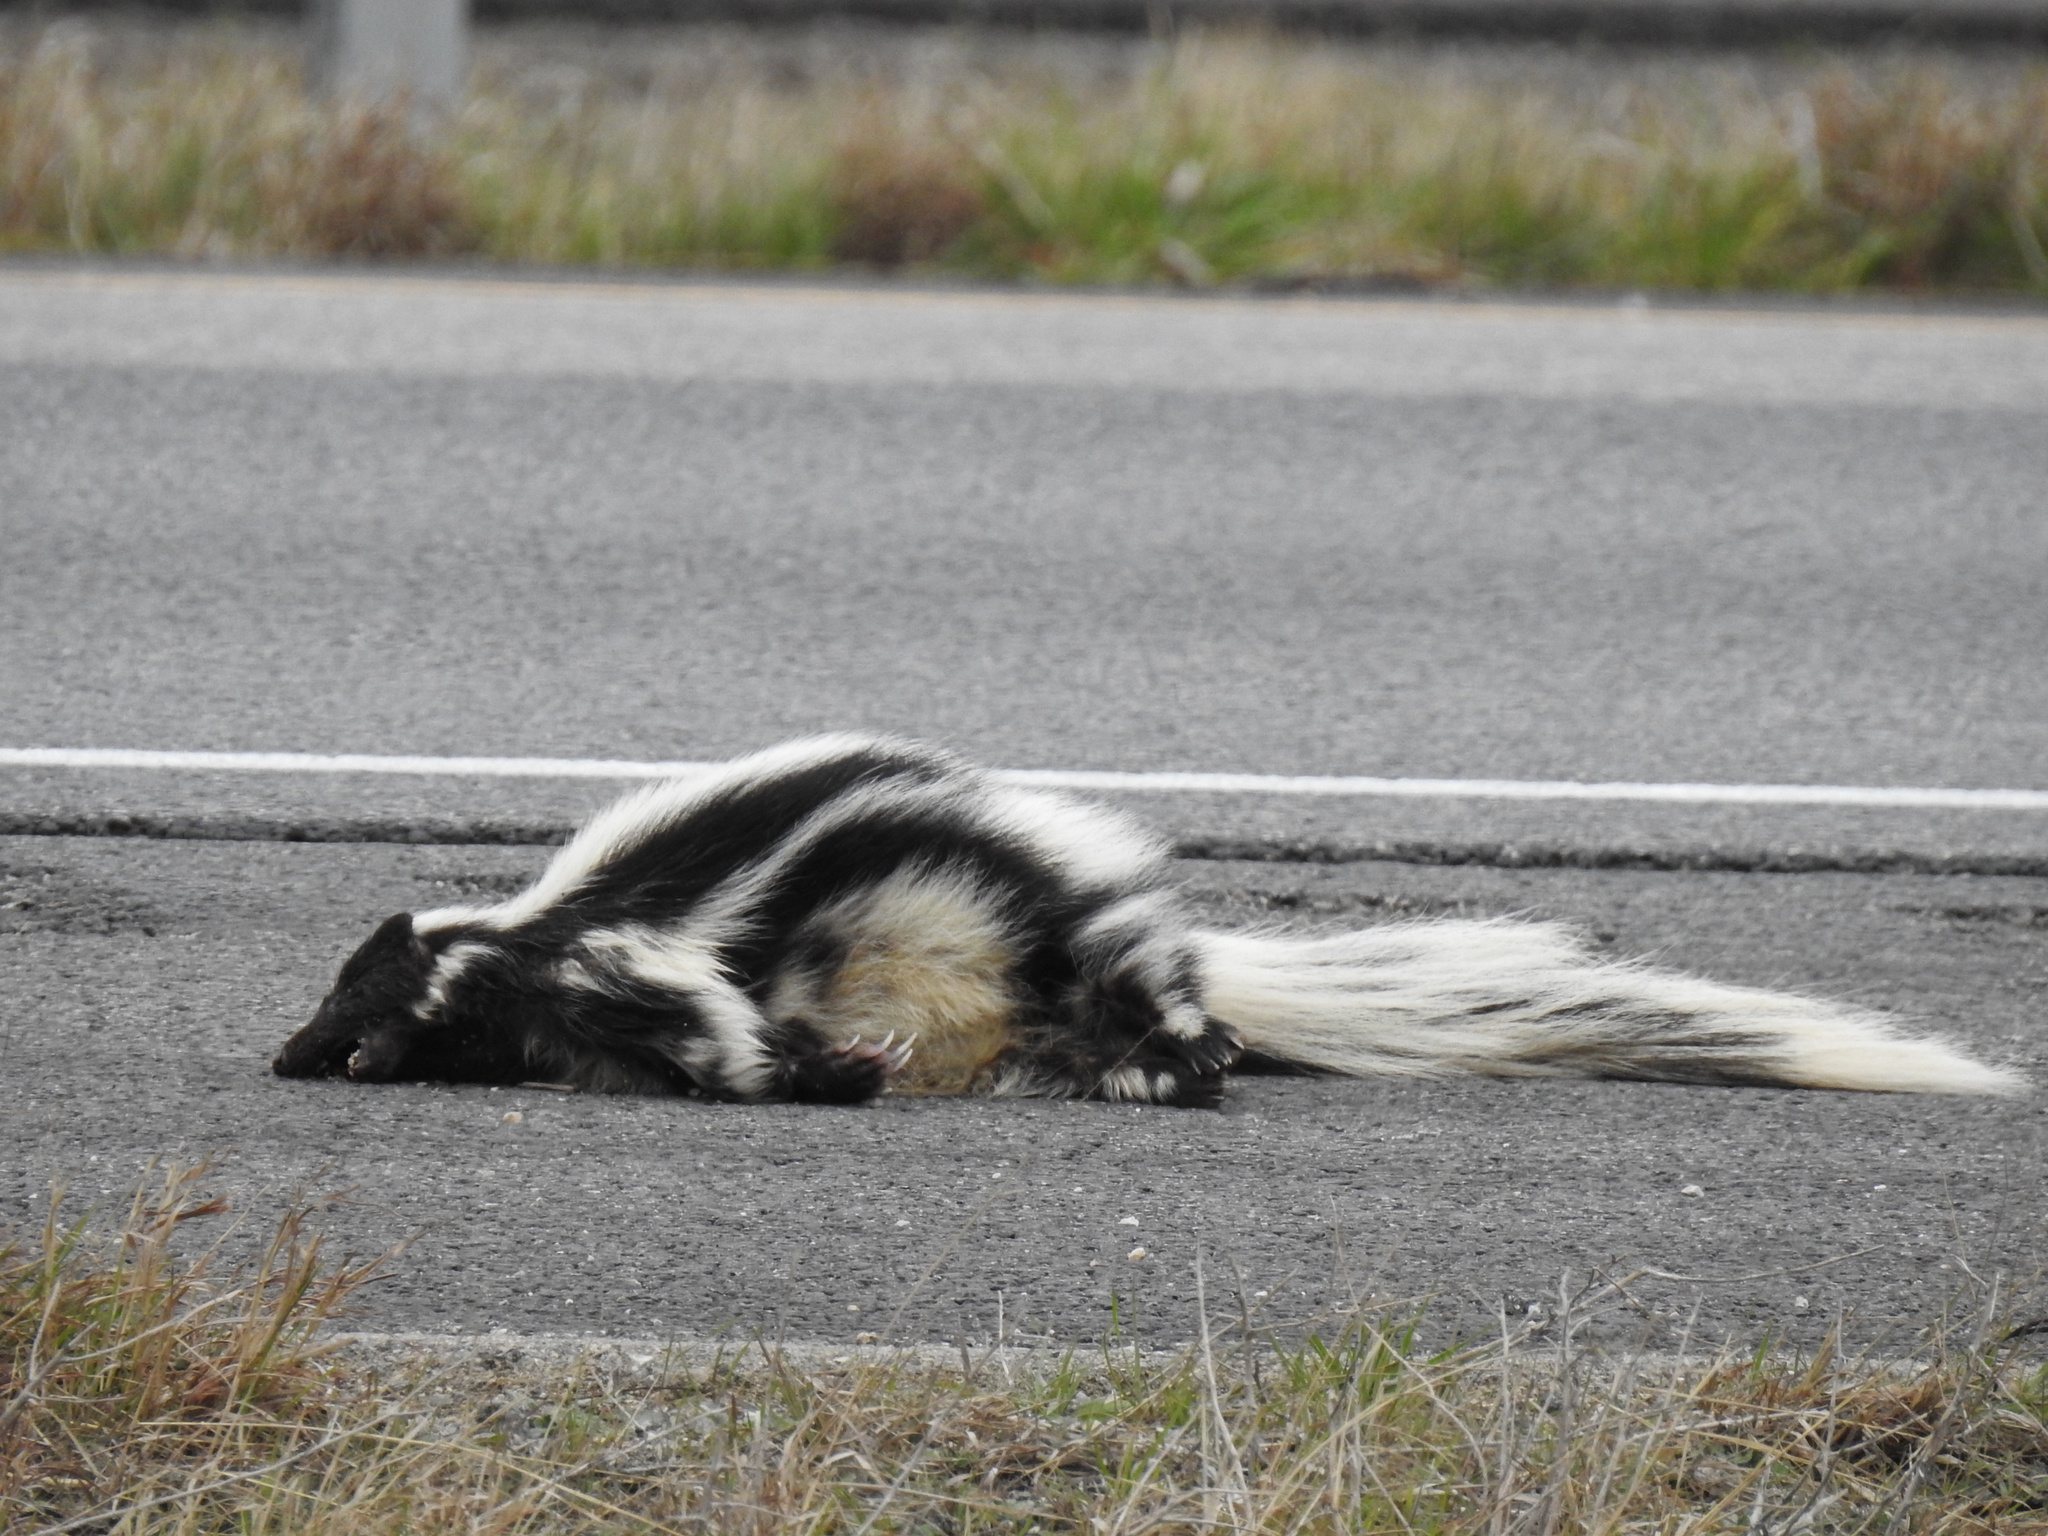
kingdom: Animalia
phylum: Chordata
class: Mammalia
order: Carnivora
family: Mephitidae
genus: Mephitis
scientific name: Mephitis mephitis
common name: Striped skunk
